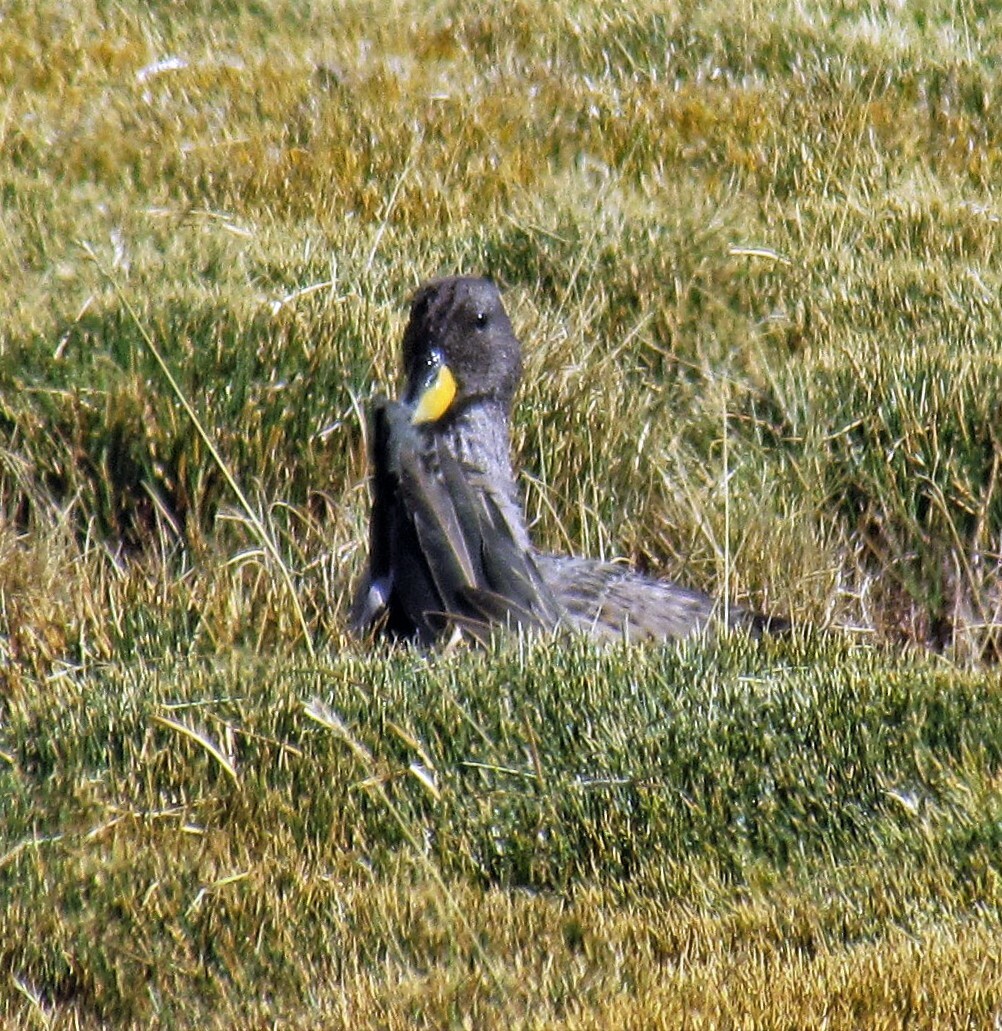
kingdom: Animalia
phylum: Chordata
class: Aves
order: Anseriformes
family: Anatidae
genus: Anas
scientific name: Anas flavirostris
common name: Yellow-billed teal
